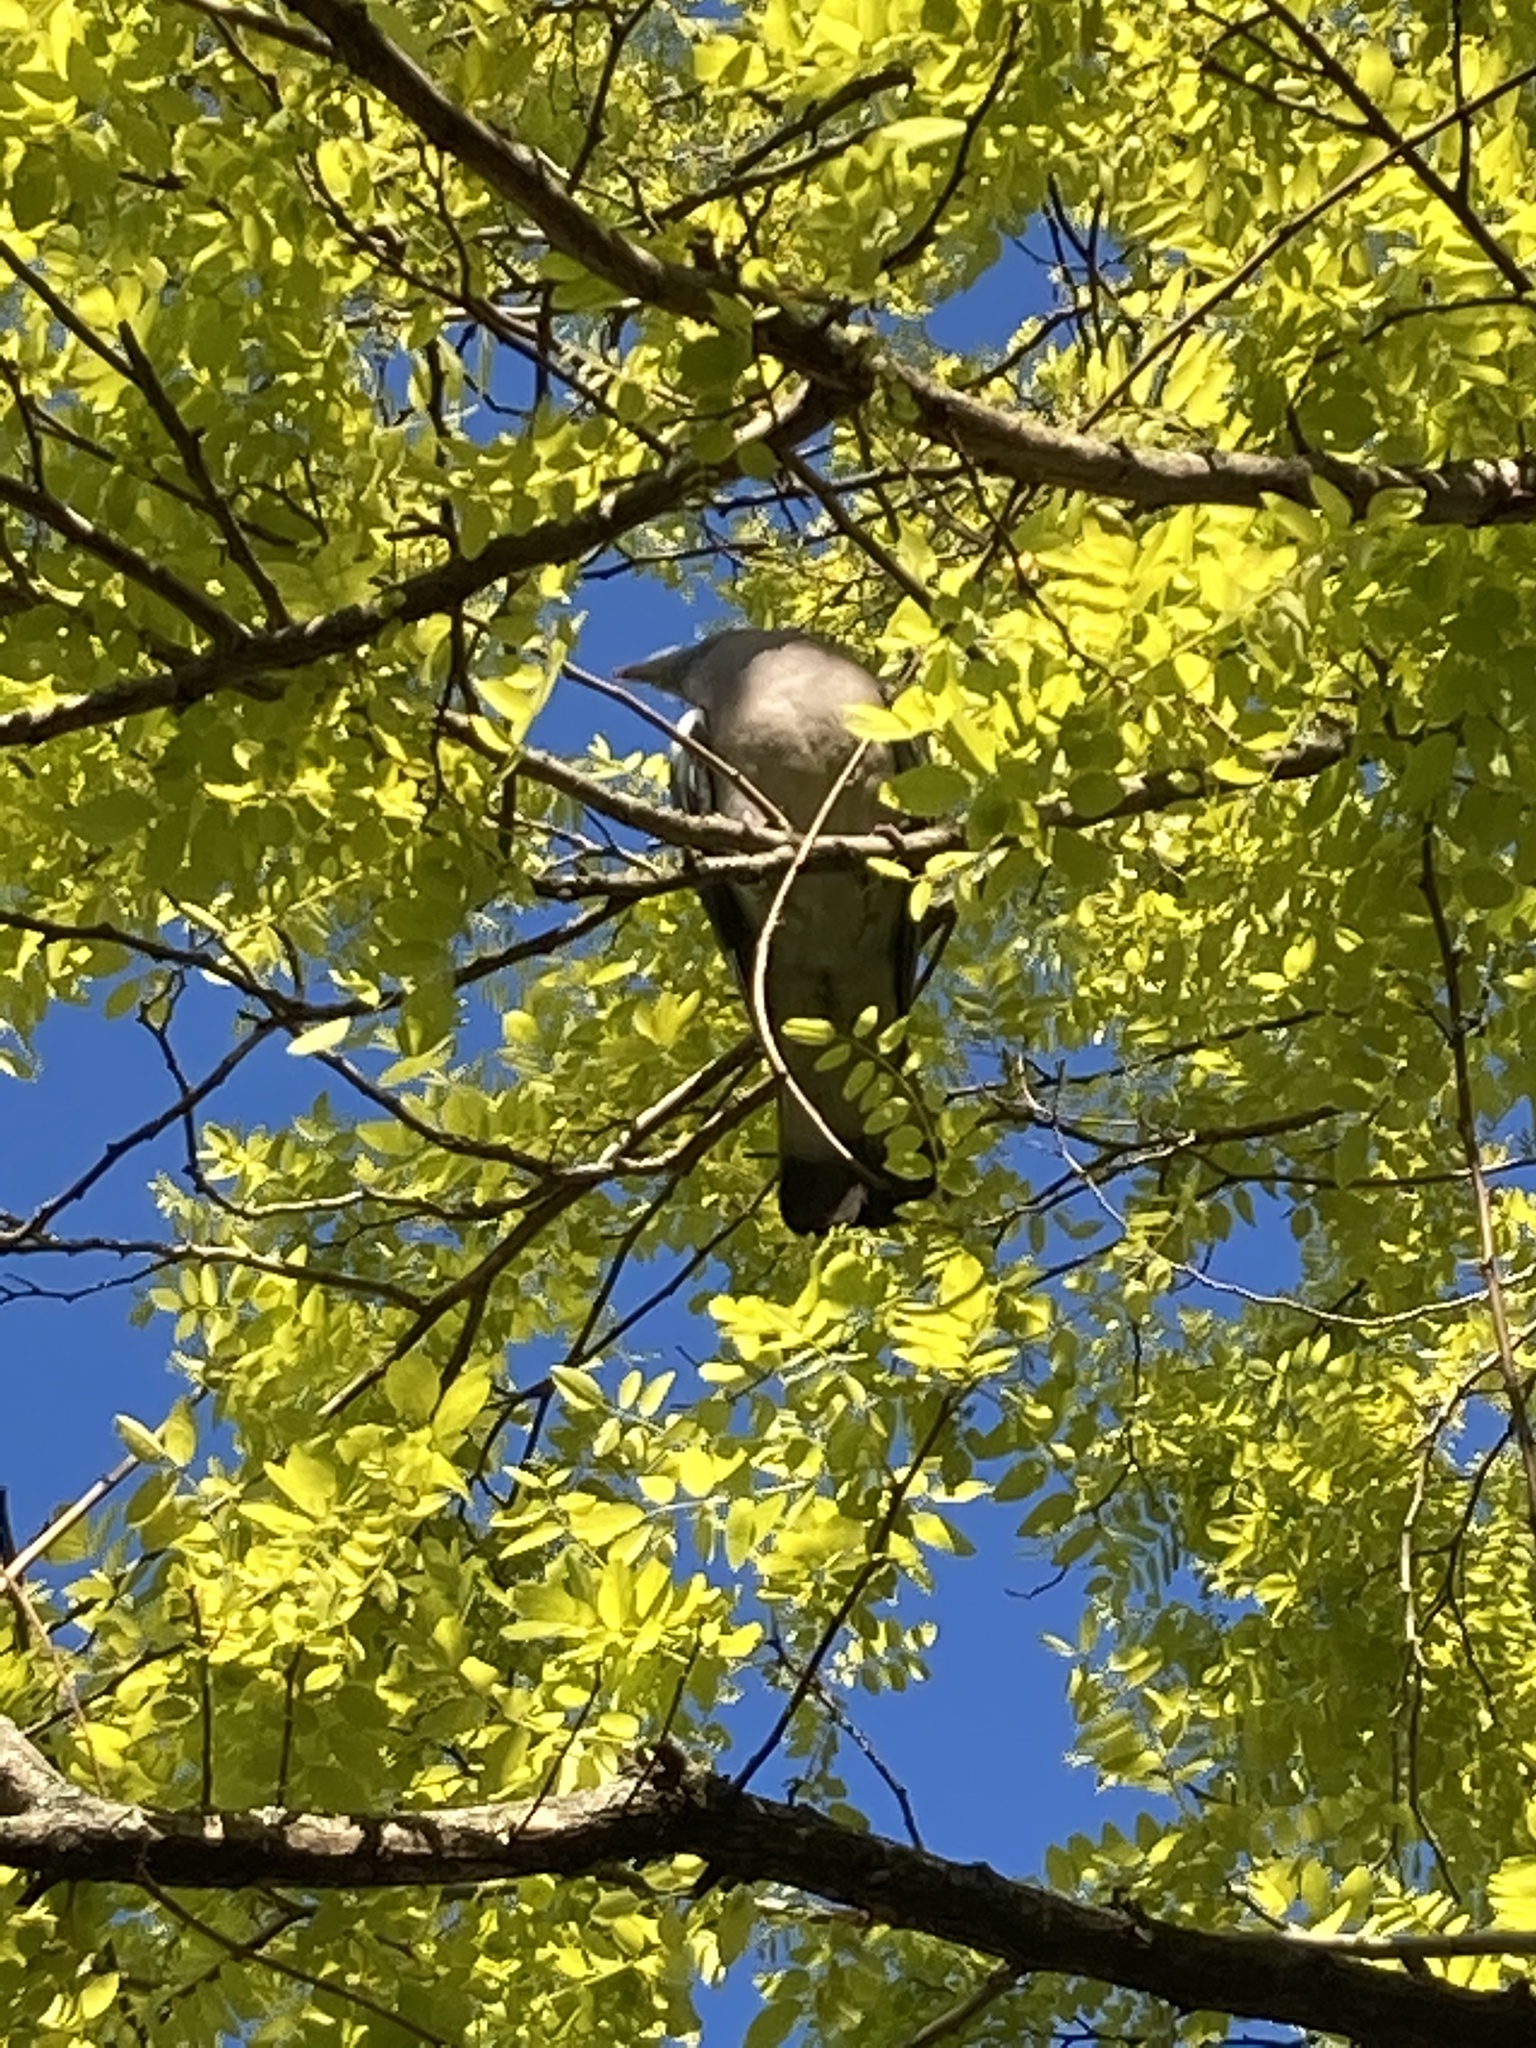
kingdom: Animalia
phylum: Chordata
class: Aves
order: Columbiformes
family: Columbidae
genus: Columba
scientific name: Columba palumbus
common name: Common wood pigeon
